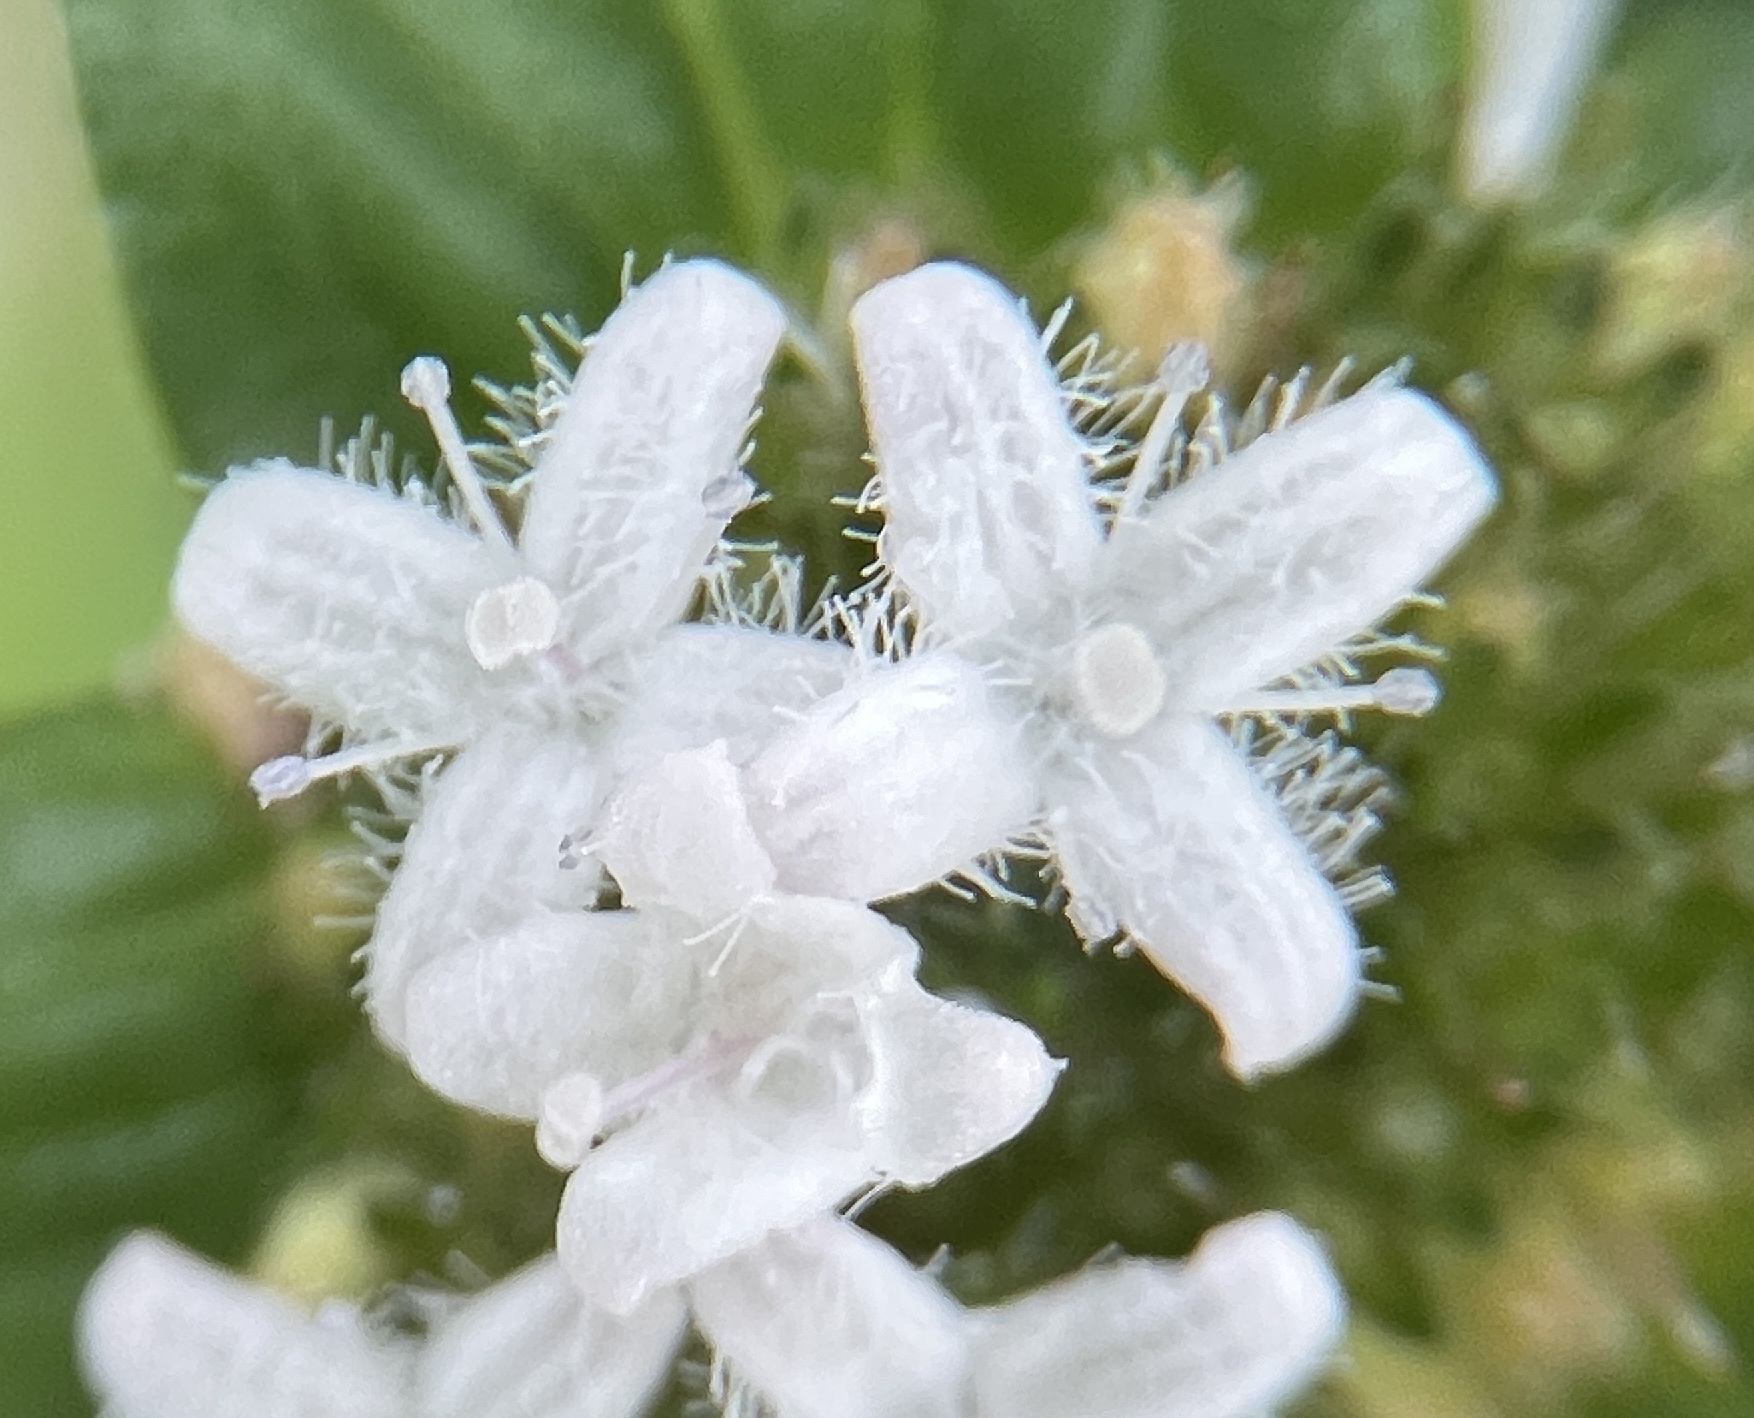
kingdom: Plantae
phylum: Tracheophyta
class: Magnoliopsida
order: Gentianales
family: Rubiaceae
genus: Spermacoce
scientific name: Spermacoce remota
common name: Woodland false buttonweed
